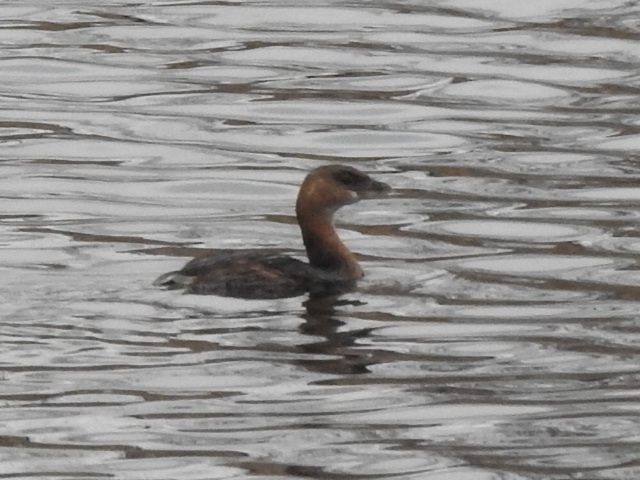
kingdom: Animalia
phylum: Chordata
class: Aves
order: Podicipediformes
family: Podicipedidae
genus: Podilymbus
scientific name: Podilymbus podiceps
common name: Pied-billed grebe
